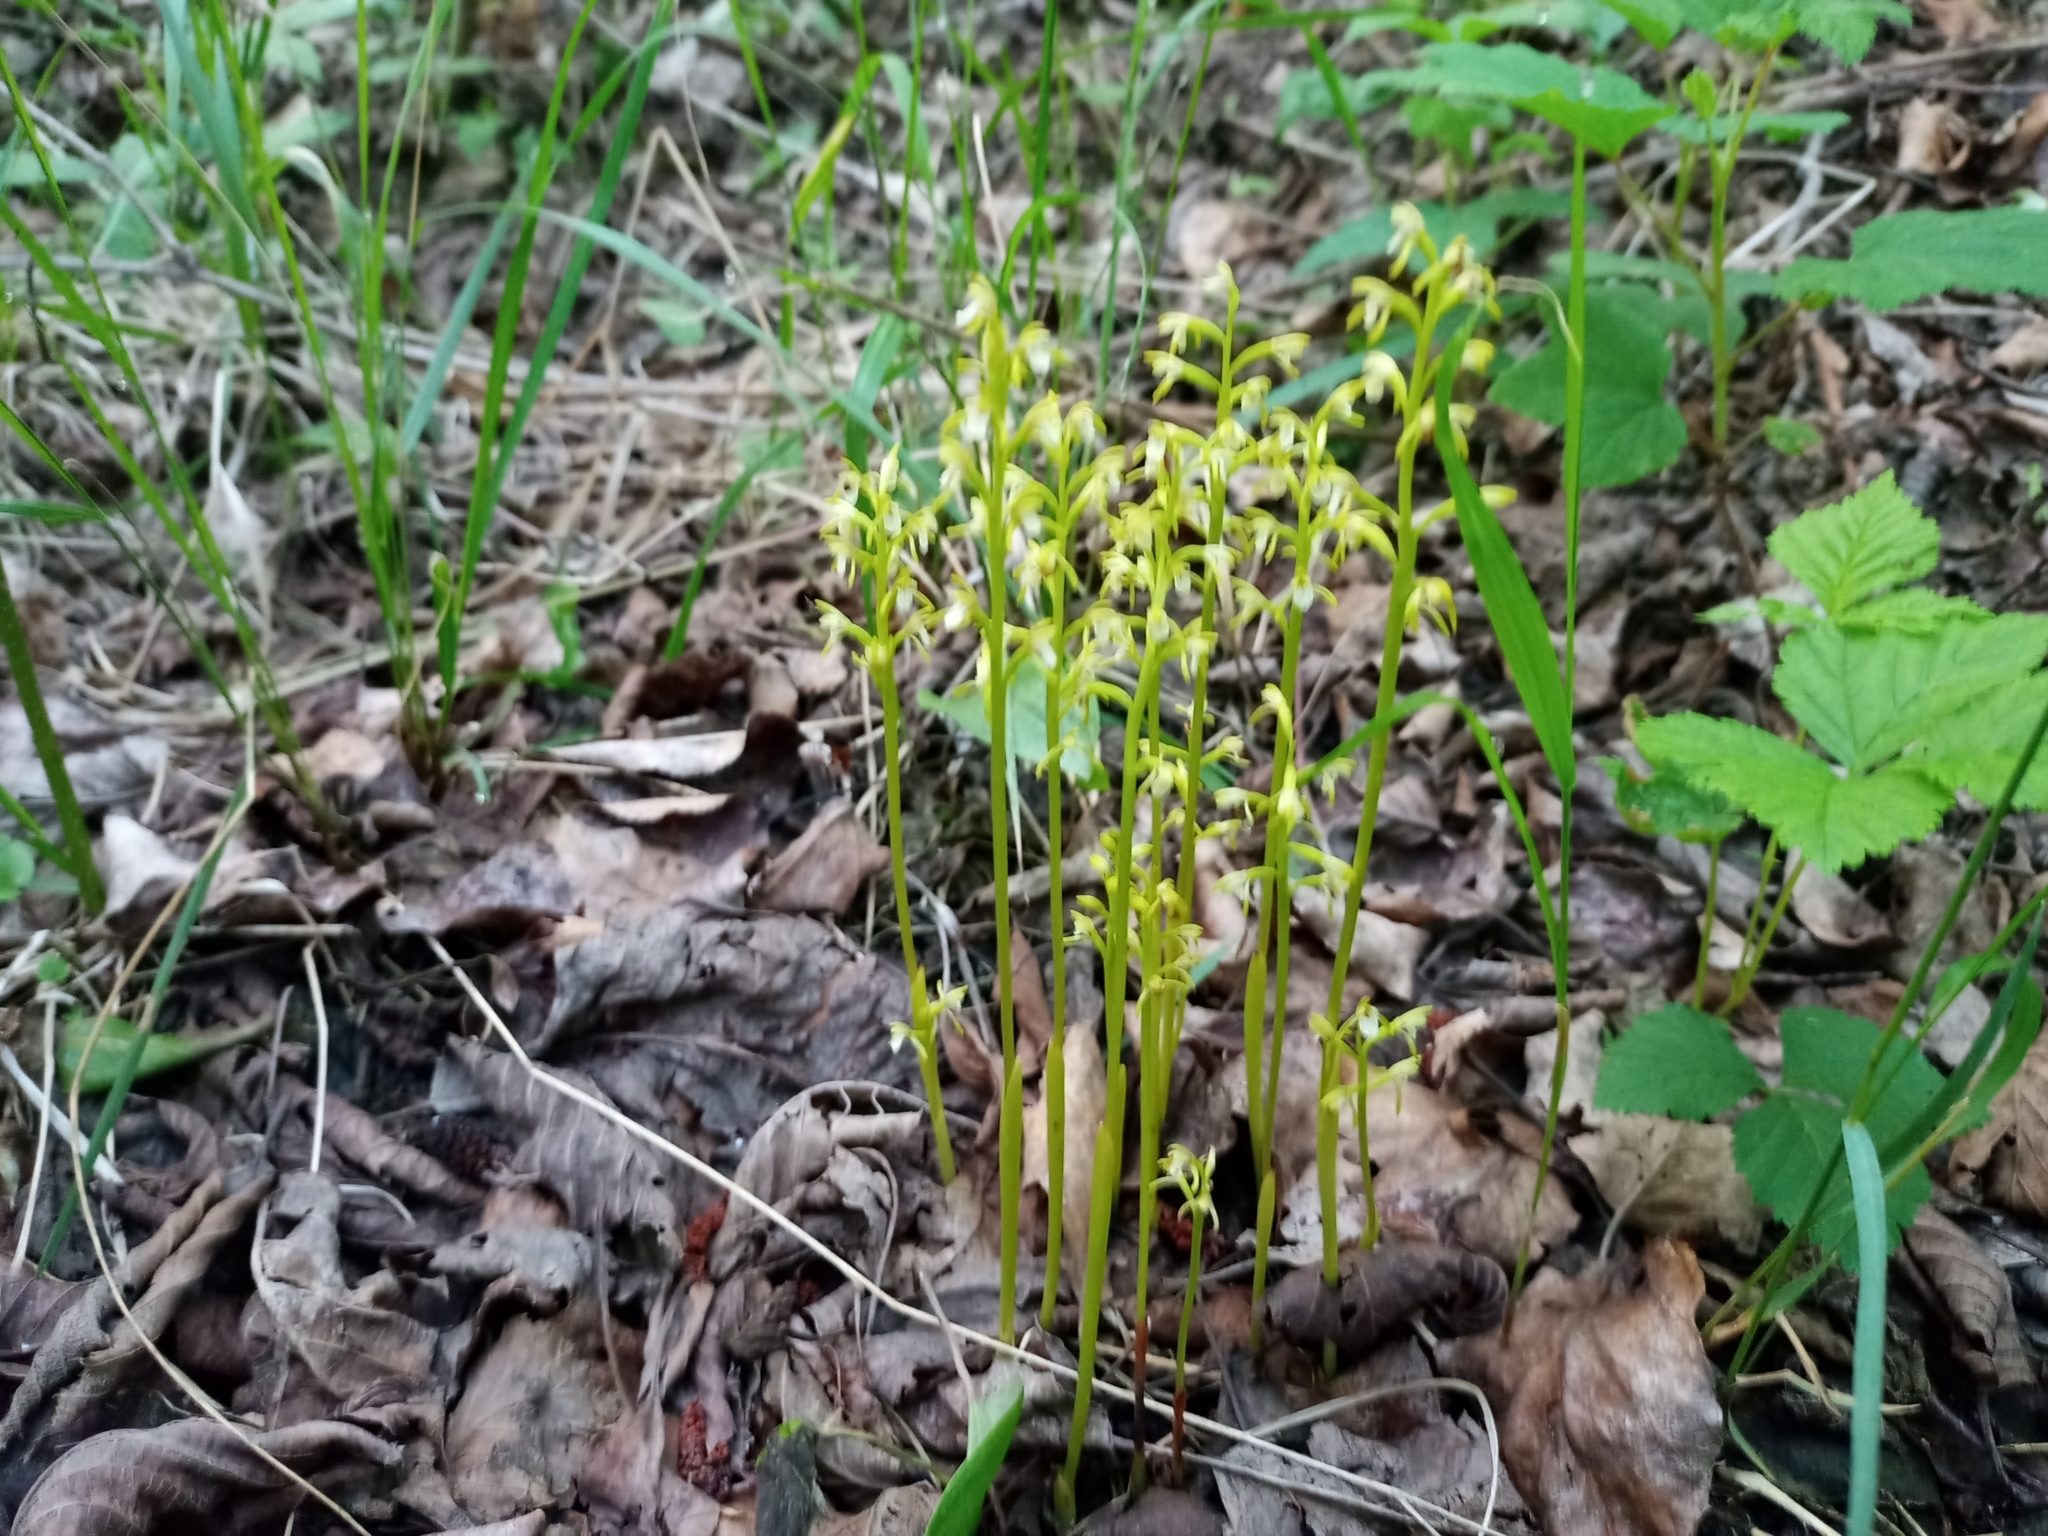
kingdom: Plantae
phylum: Tracheophyta
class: Liliopsida
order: Asparagales
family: Orchidaceae
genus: Corallorhiza
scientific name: Corallorhiza trifida
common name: Yellow coralroot
